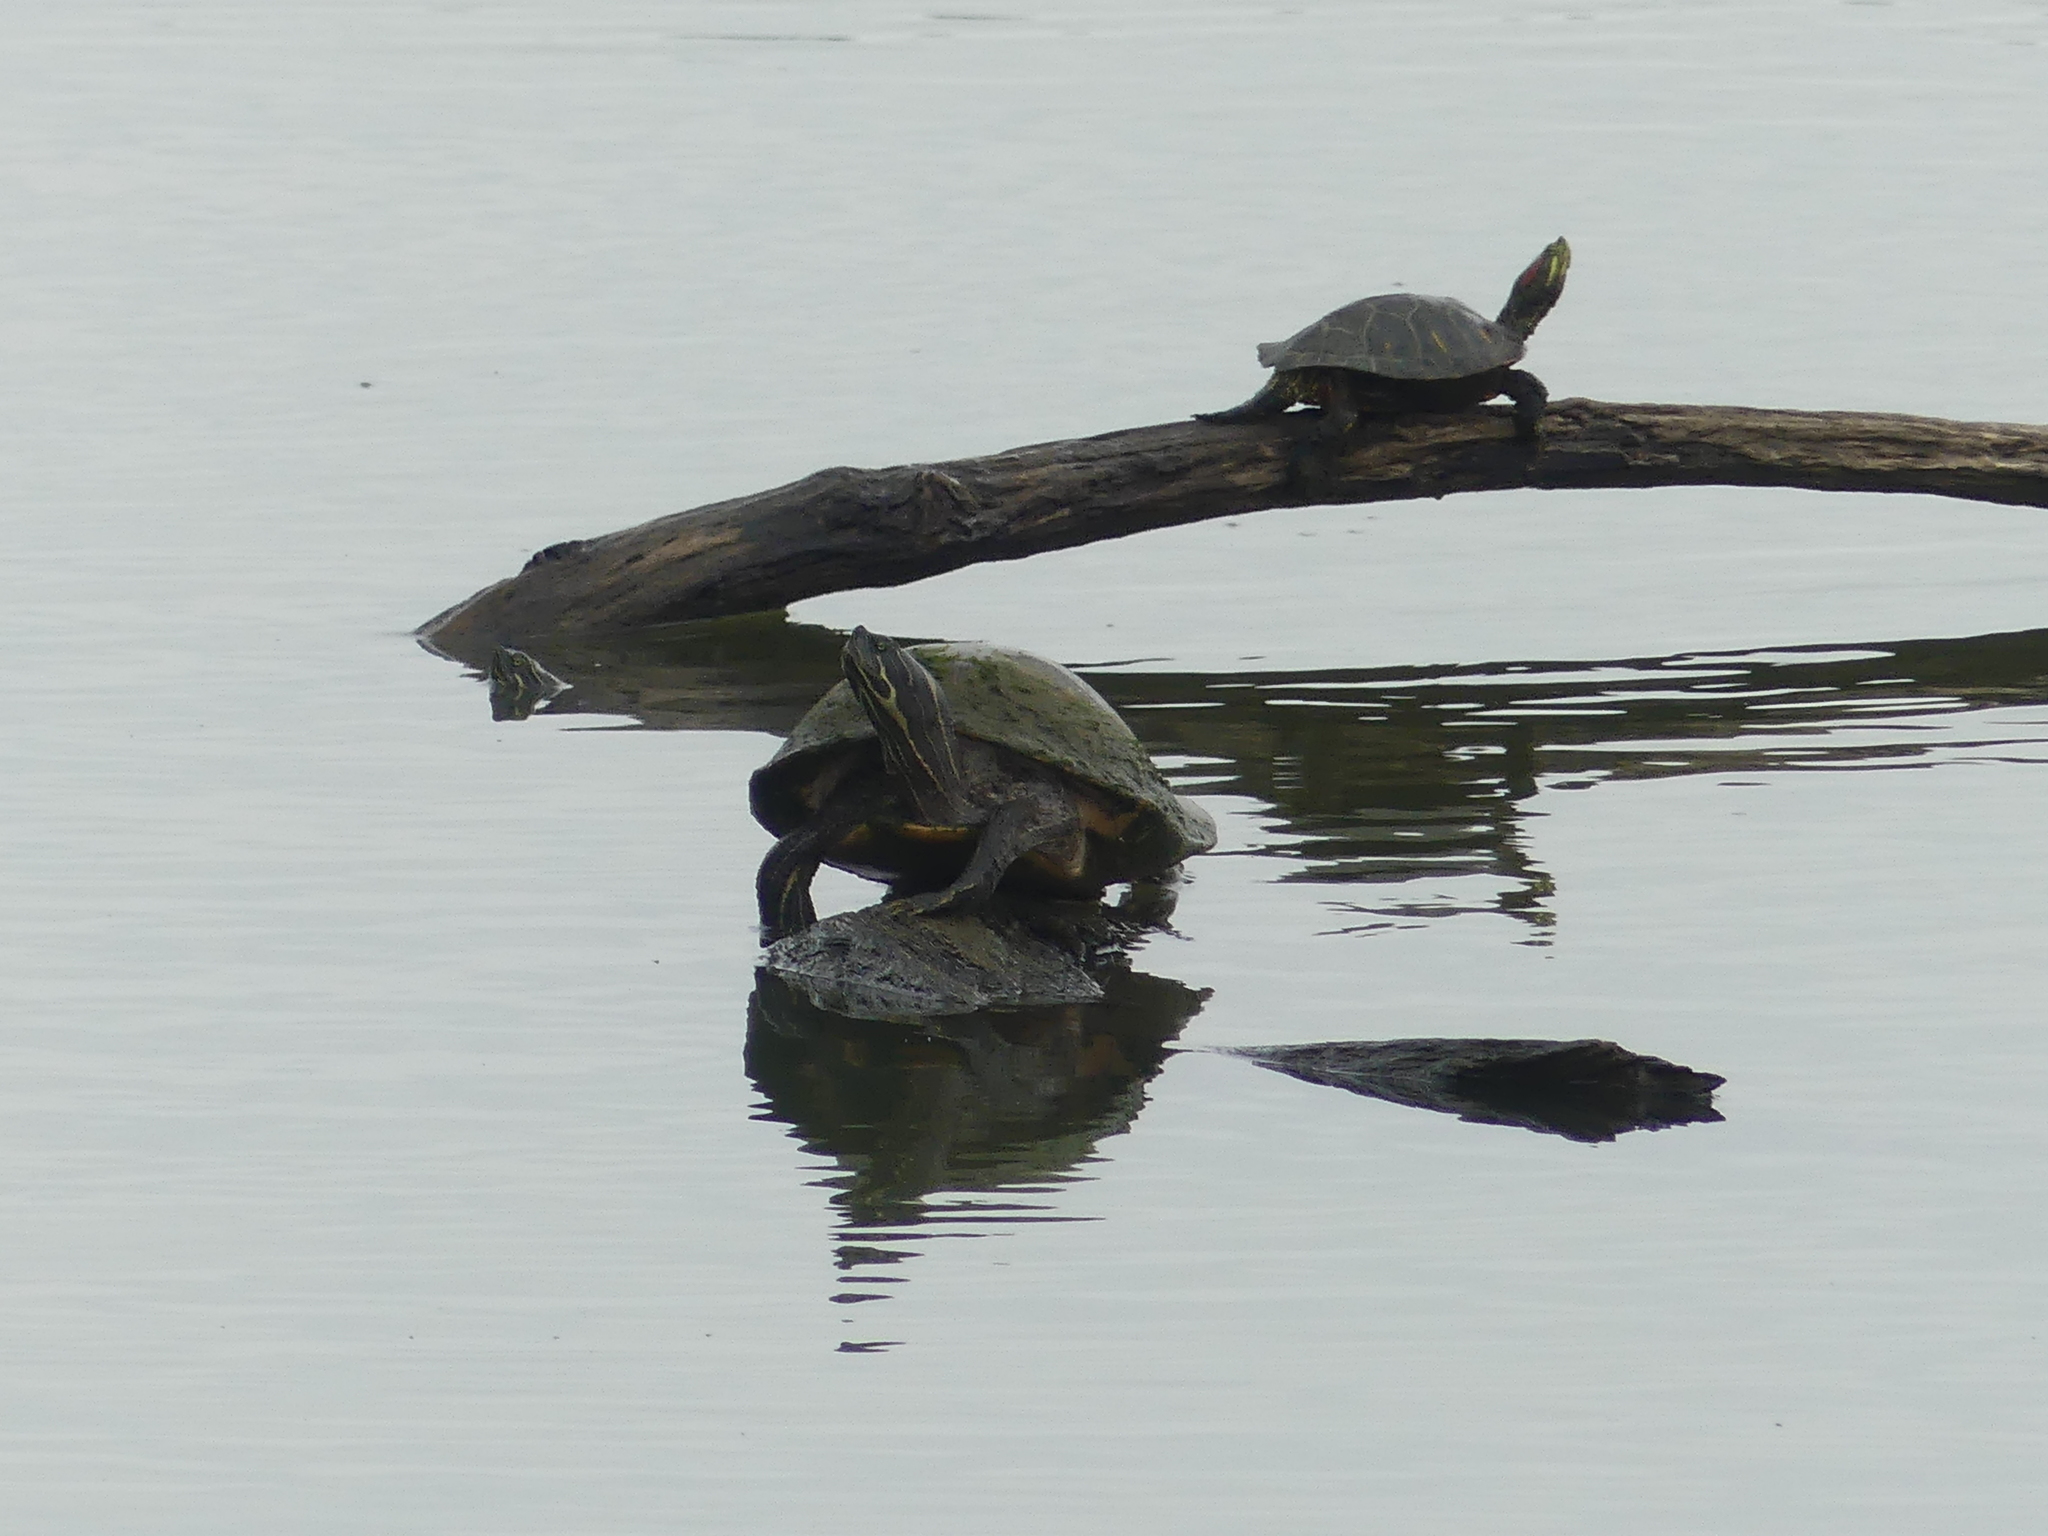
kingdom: Animalia
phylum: Chordata
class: Testudines
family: Emydidae
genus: Pseudemys
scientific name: Pseudemys concinna
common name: Eastern river cooter
